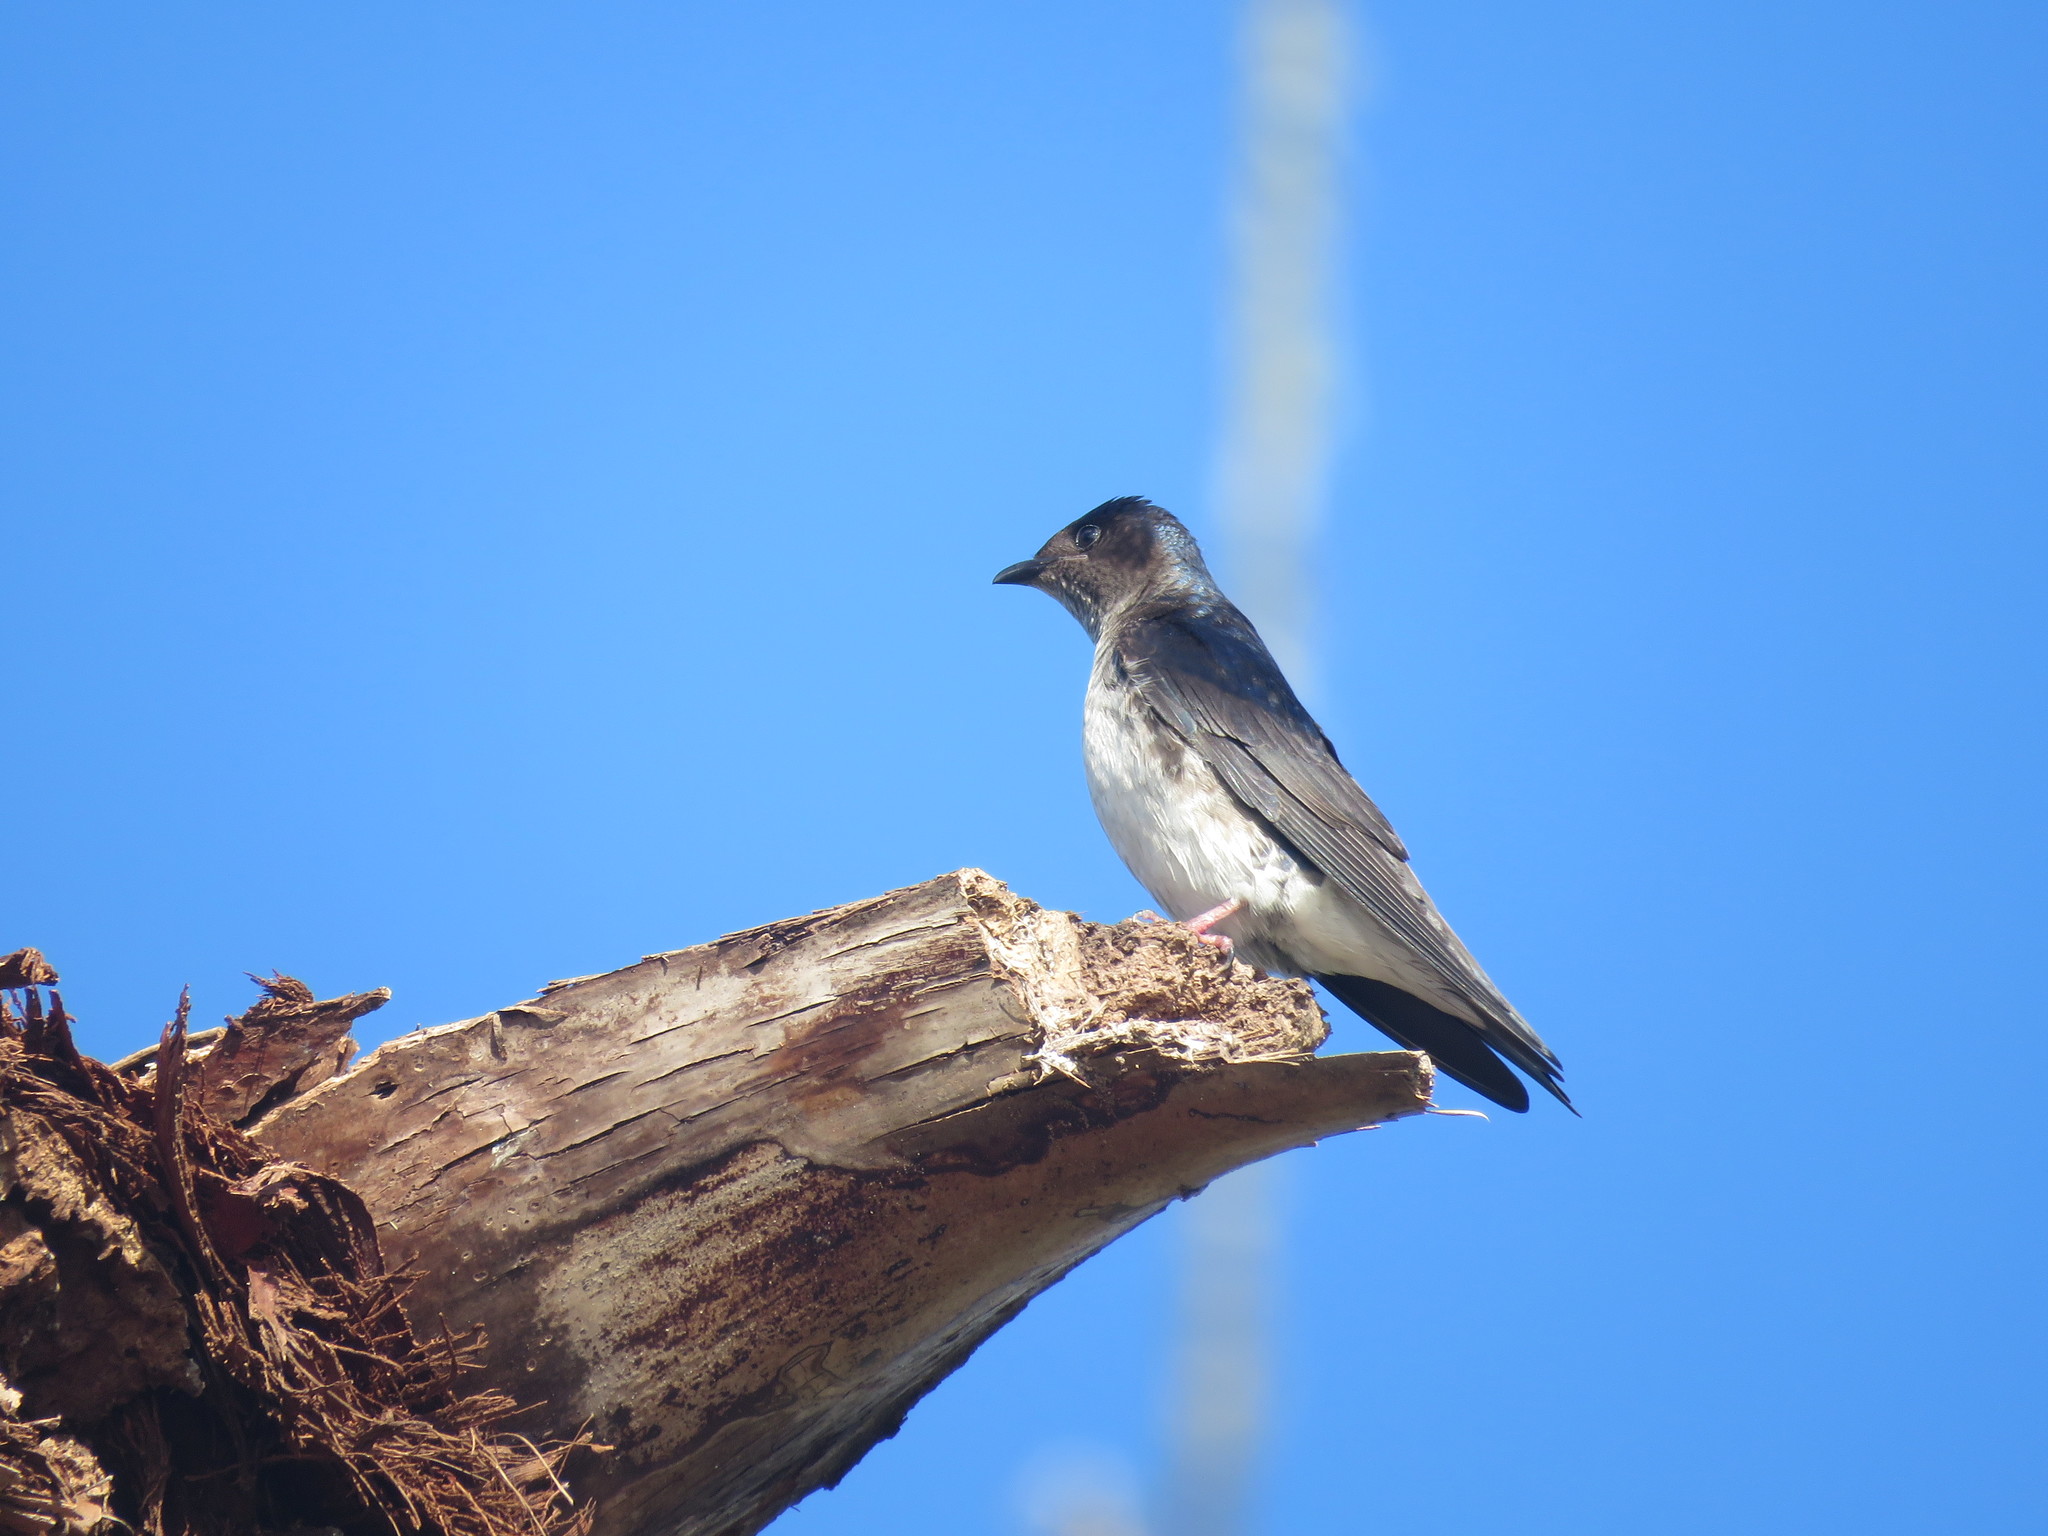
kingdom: Animalia
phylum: Chordata
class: Aves
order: Passeriformes
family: Hirundinidae
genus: Progne
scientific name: Progne chalybea
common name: Grey-breasted martin
